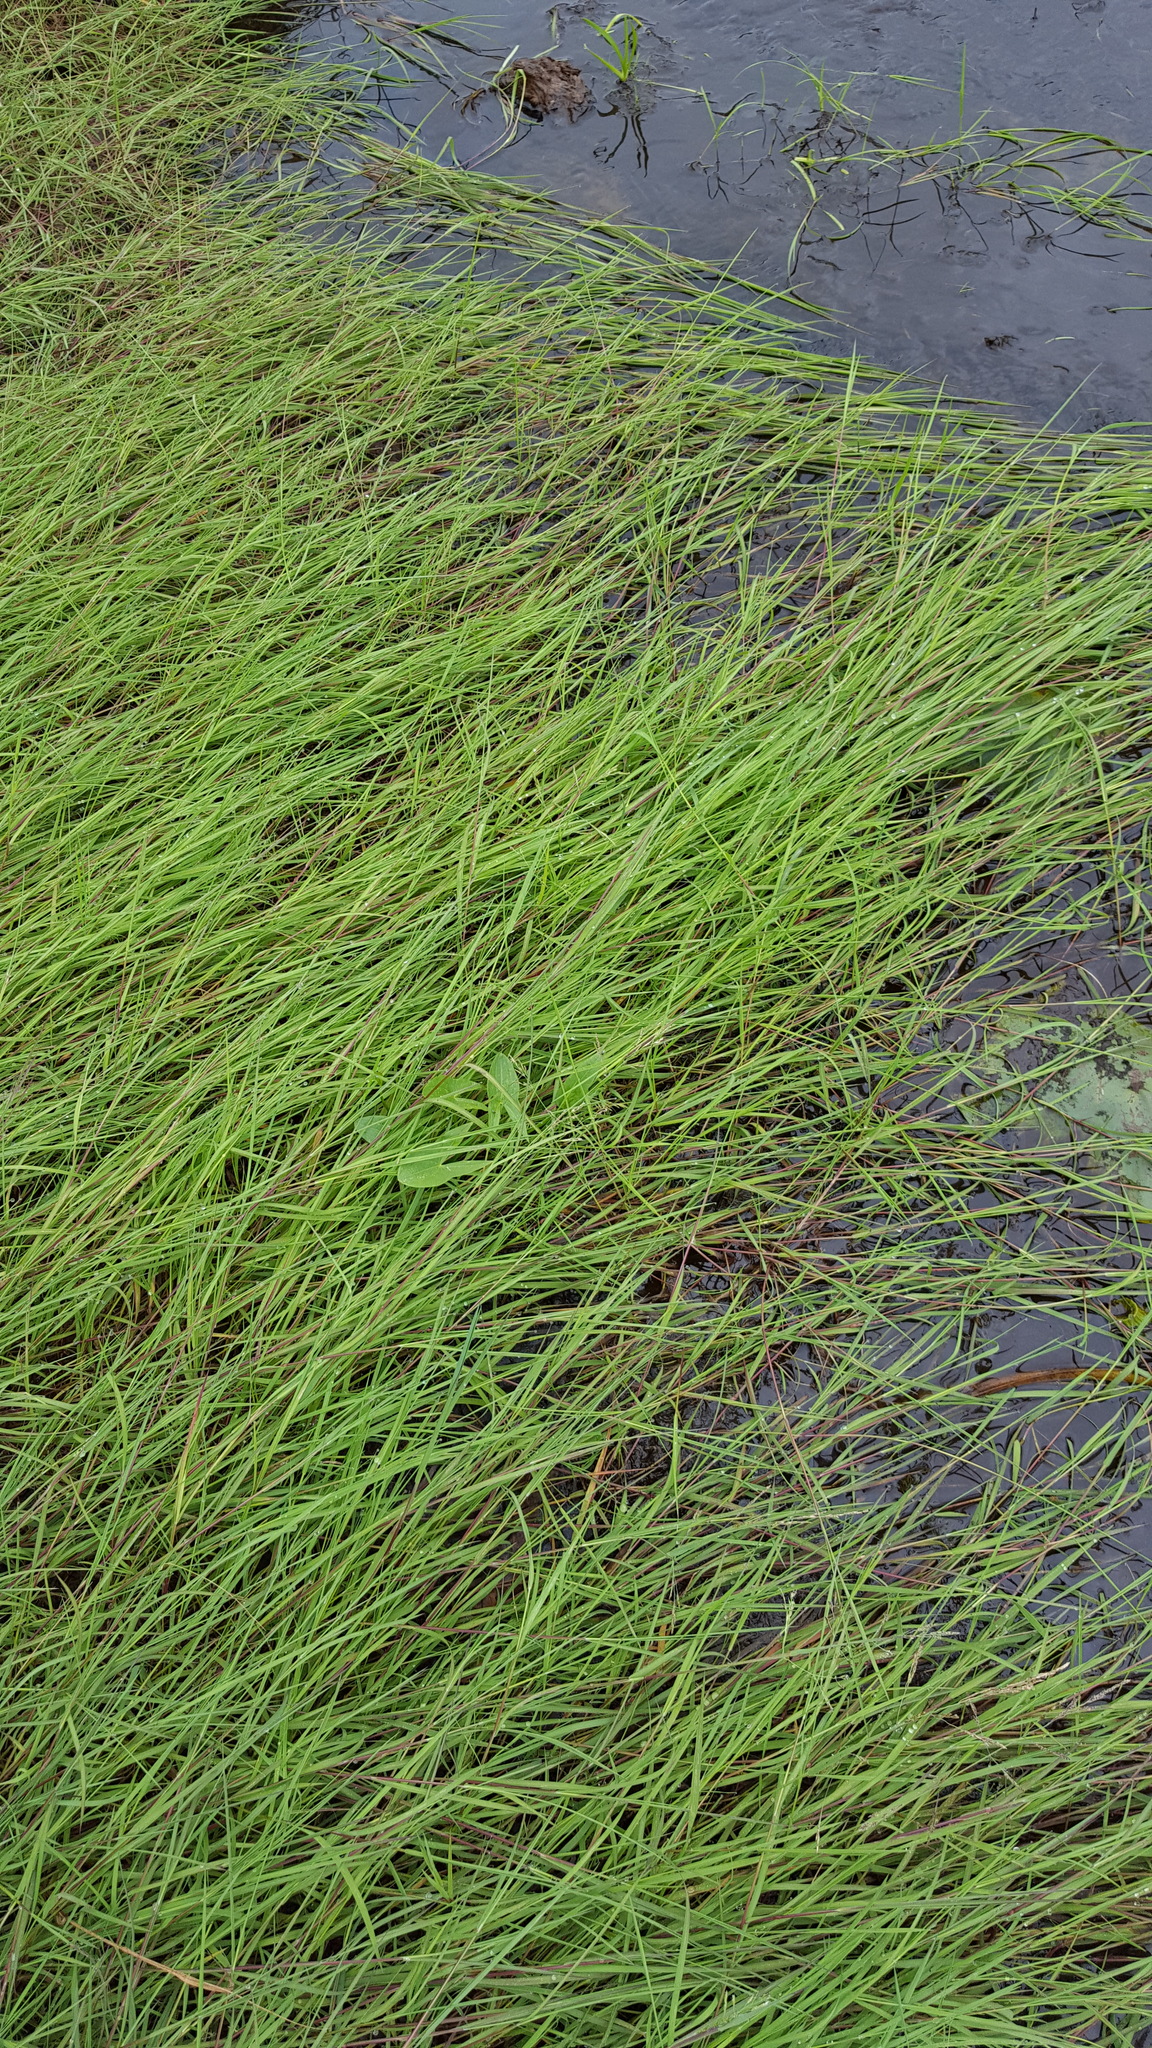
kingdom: Plantae
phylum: Tracheophyta
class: Liliopsida
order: Poales
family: Poaceae
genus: Torreyochloa
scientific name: Torreyochloa pallida
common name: Pale false mannagrass
